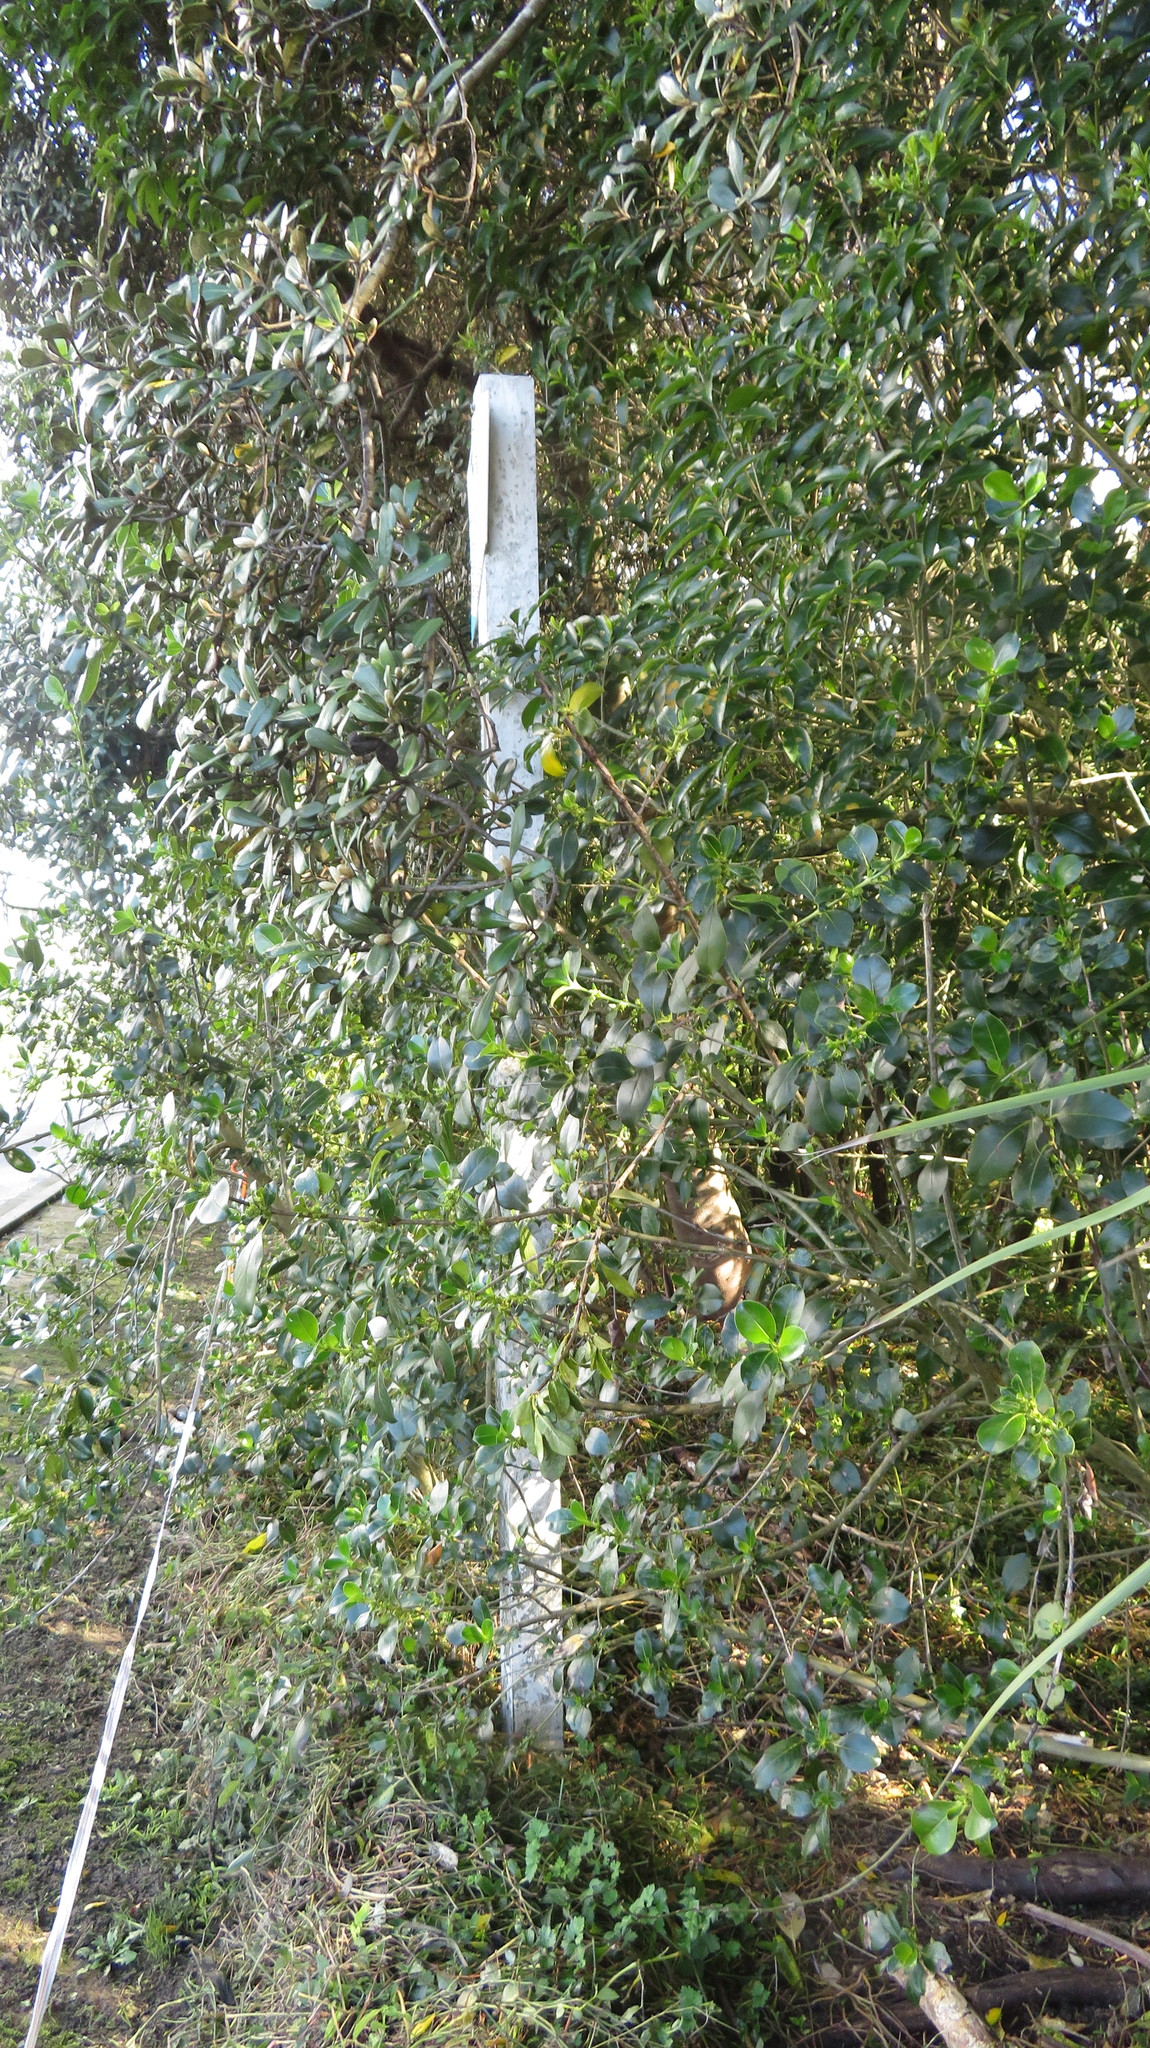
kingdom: Plantae
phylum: Tracheophyta
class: Magnoliopsida
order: Gentianales
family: Rubiaceae
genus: Coprosma
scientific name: Coprosma robusta
